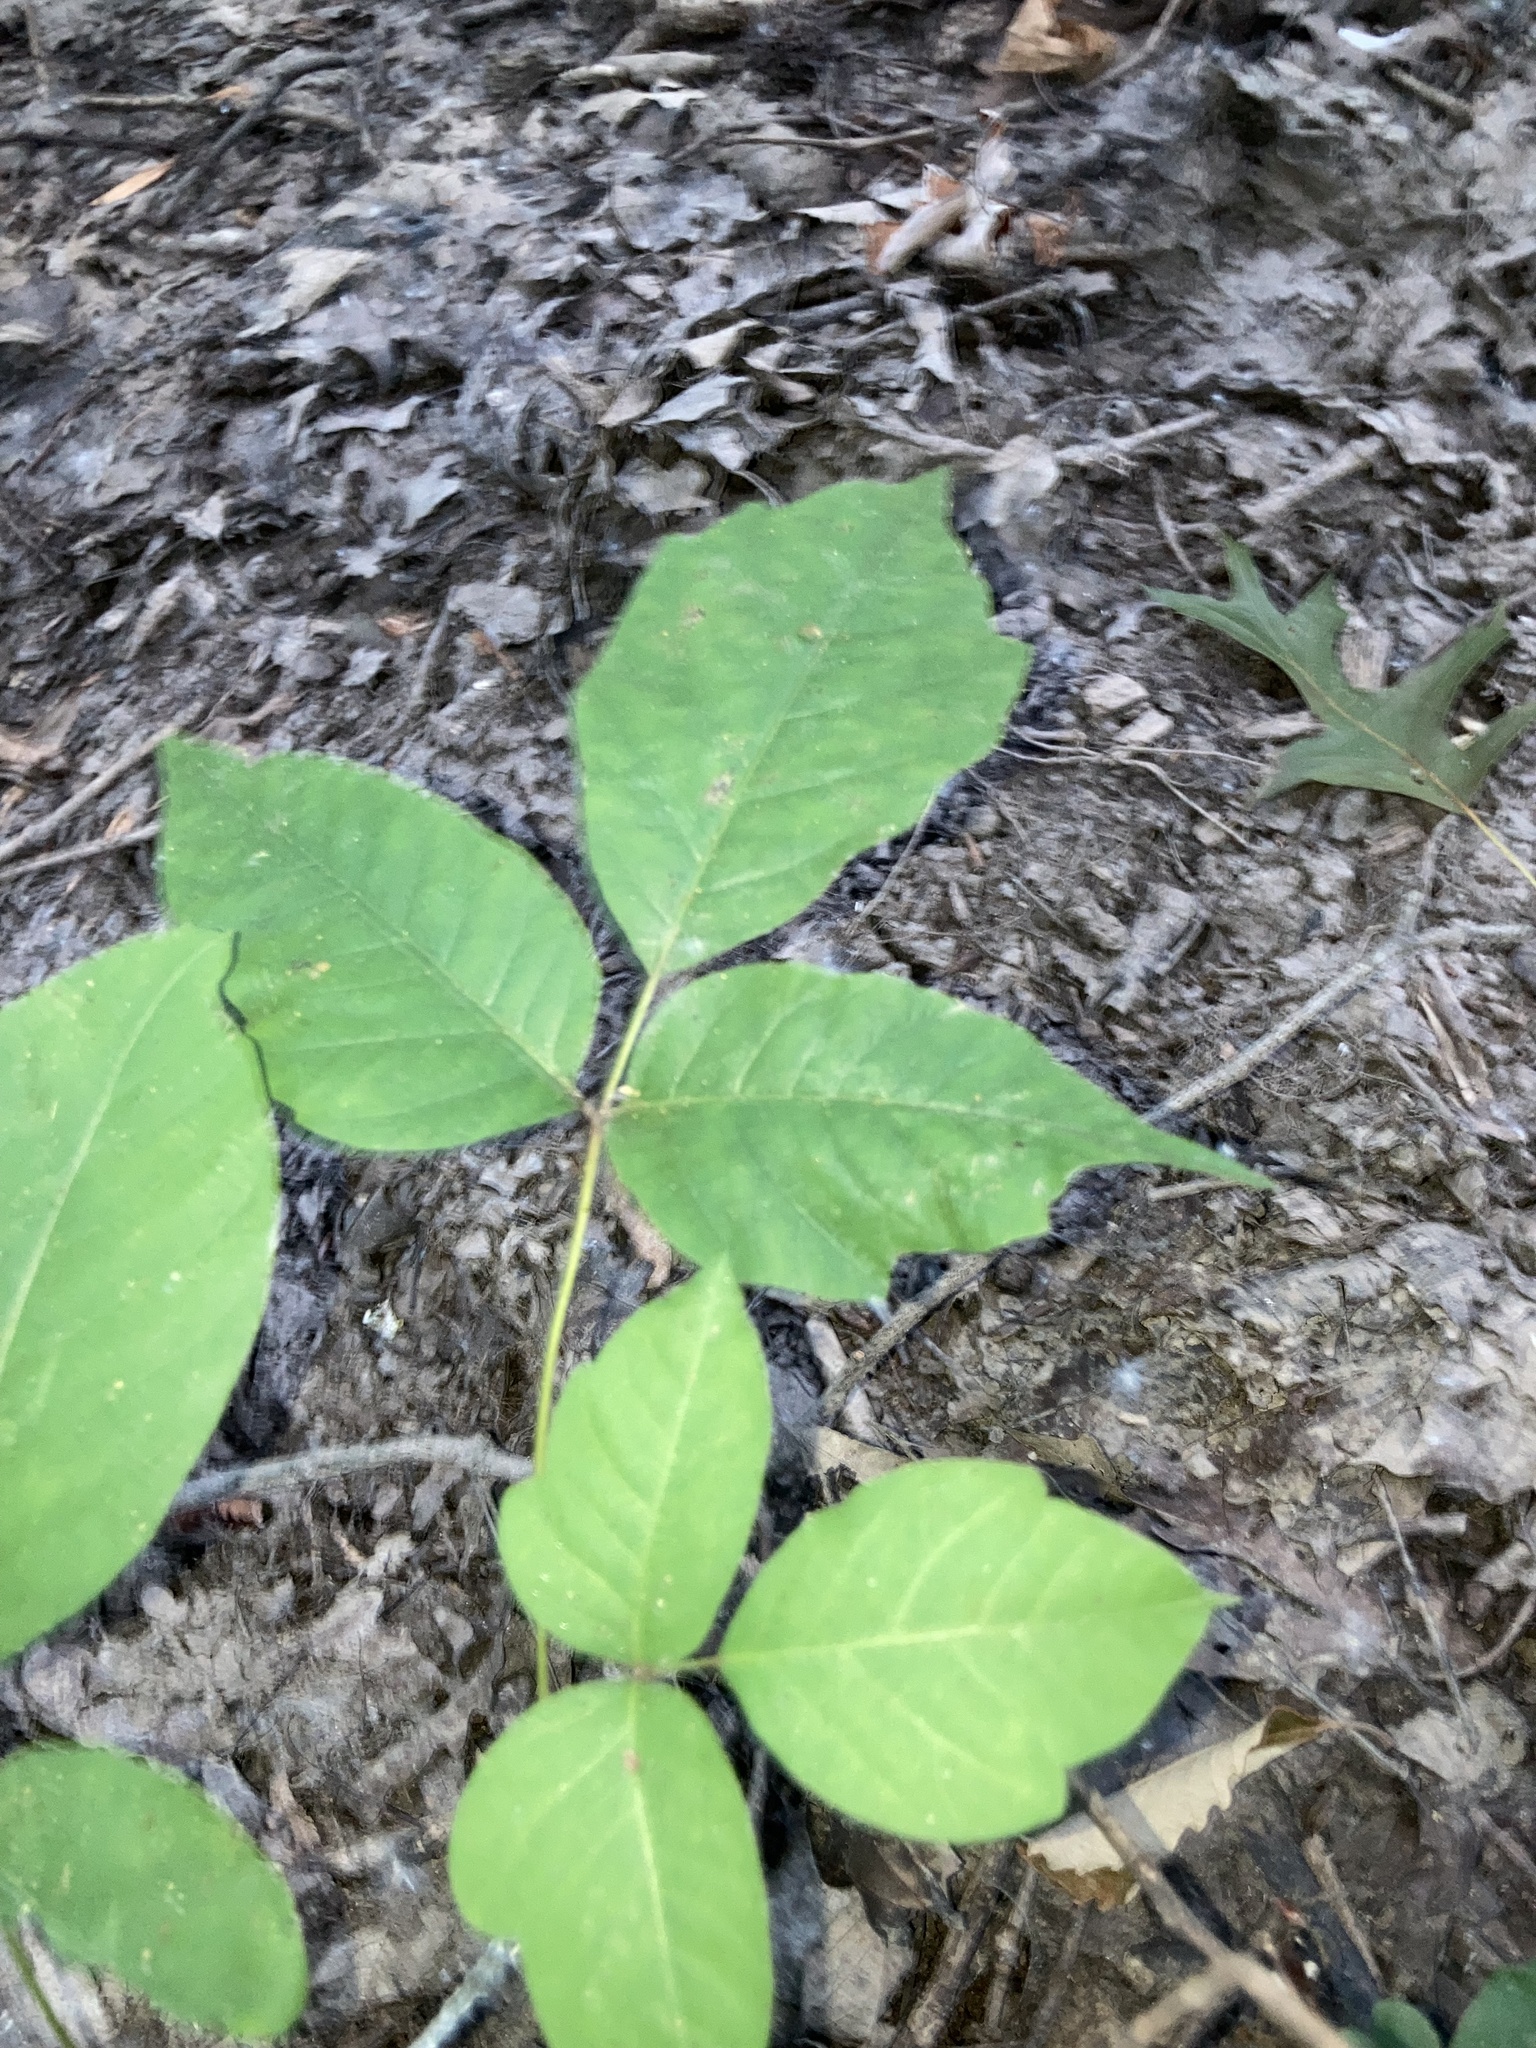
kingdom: Plantae
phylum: Tracheophyta
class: Magnoliopsida
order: Sapindales
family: Anacardiaceae
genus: Toxicodendron
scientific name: Toxicodendron radicans
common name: Poison ivy
